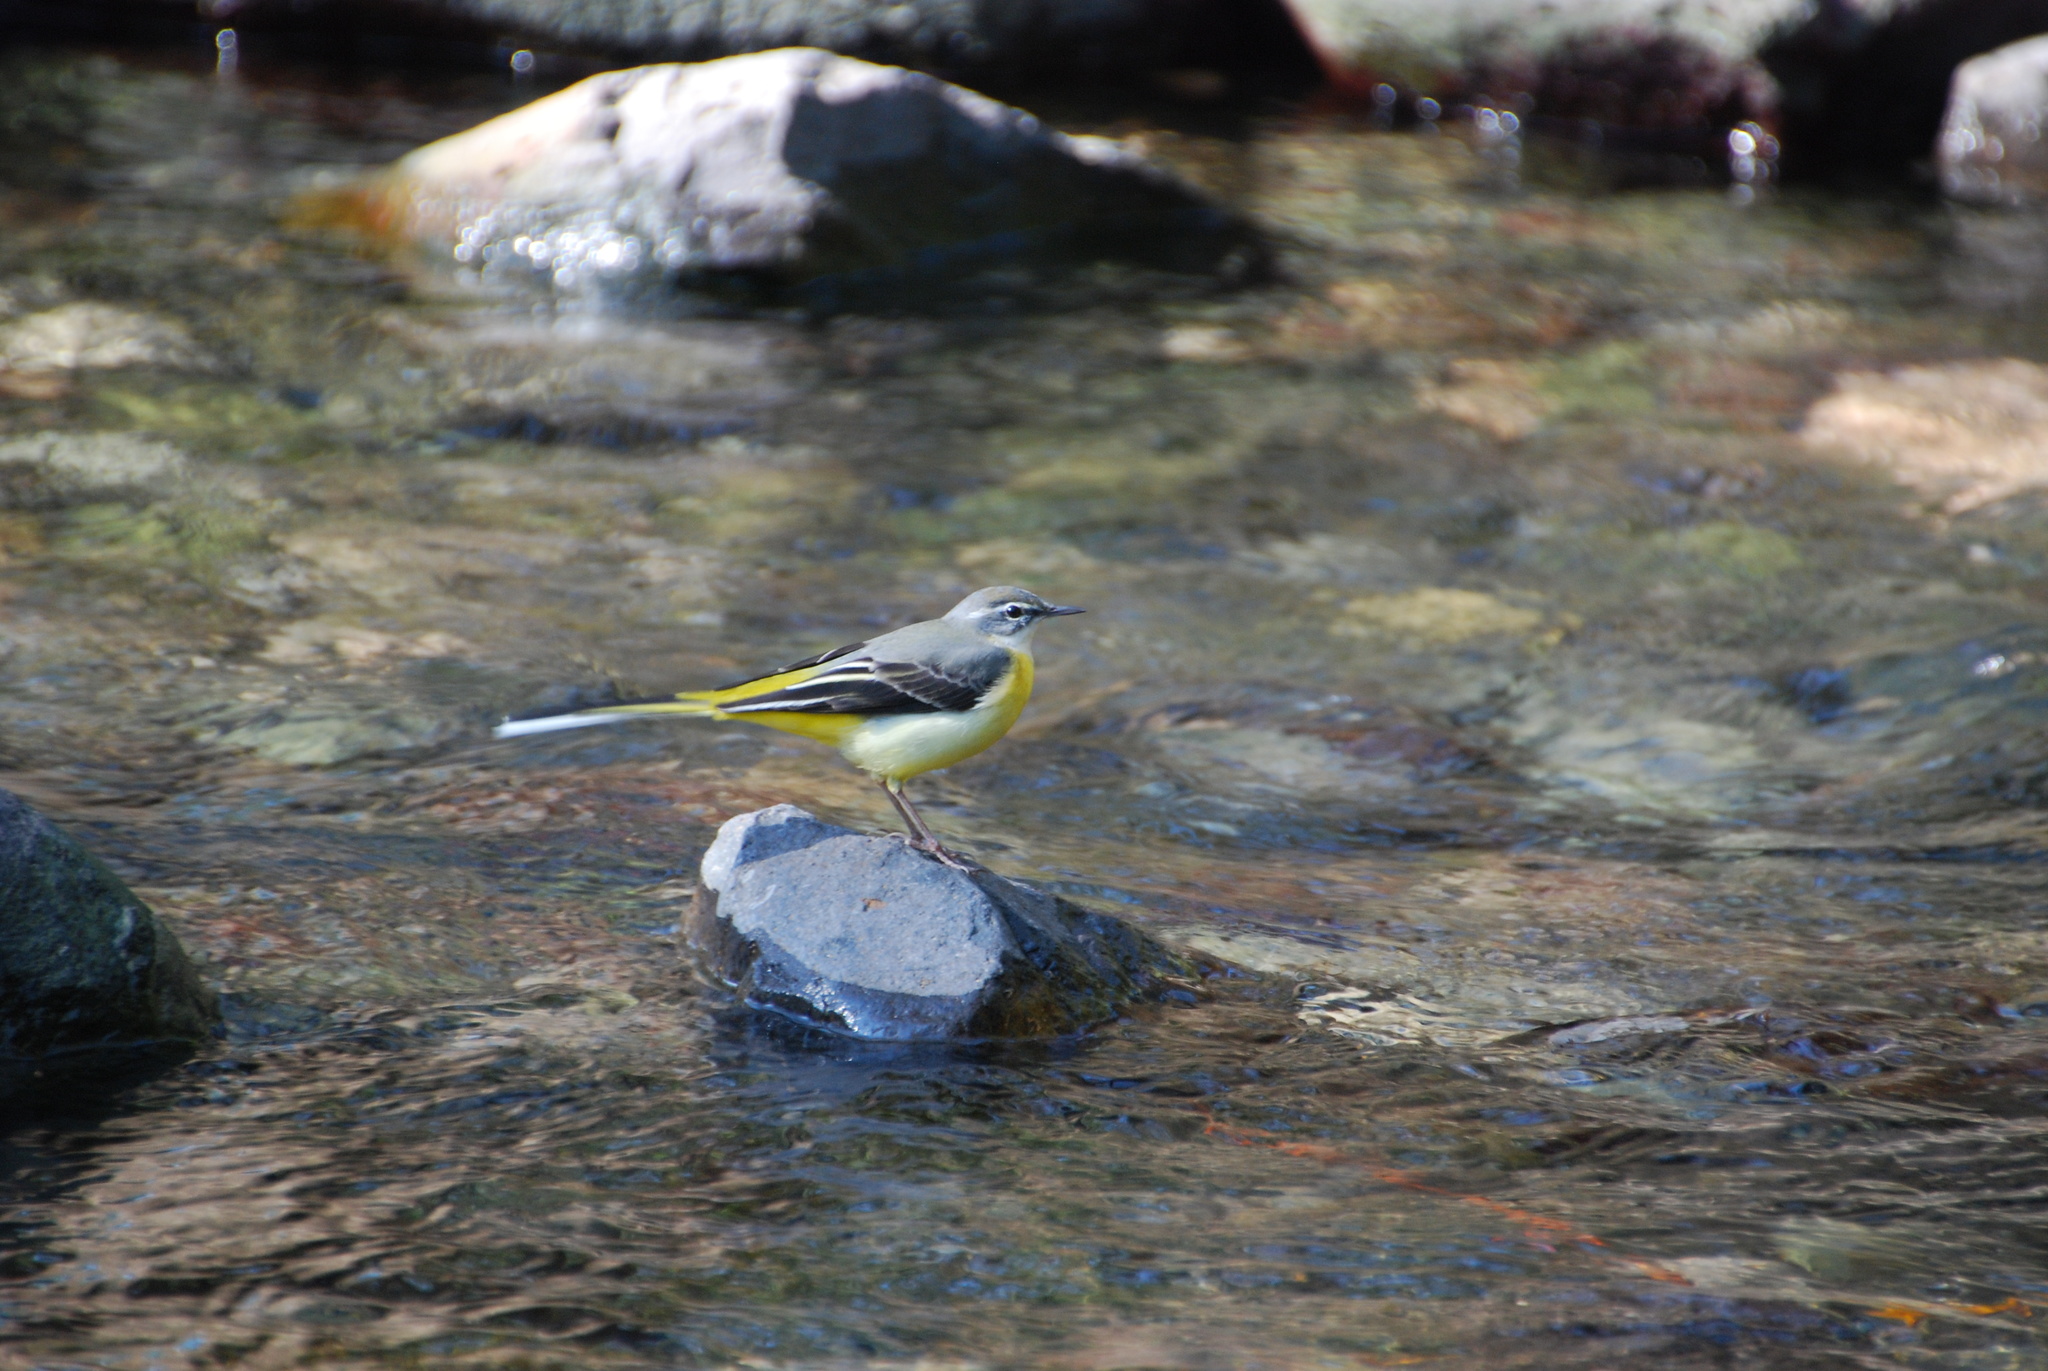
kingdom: Animalia
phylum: Chordata
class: Aves
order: Passeriformes
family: Motacillidae
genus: Motacilla
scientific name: Motacilla cinerea
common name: Grey wagtail
